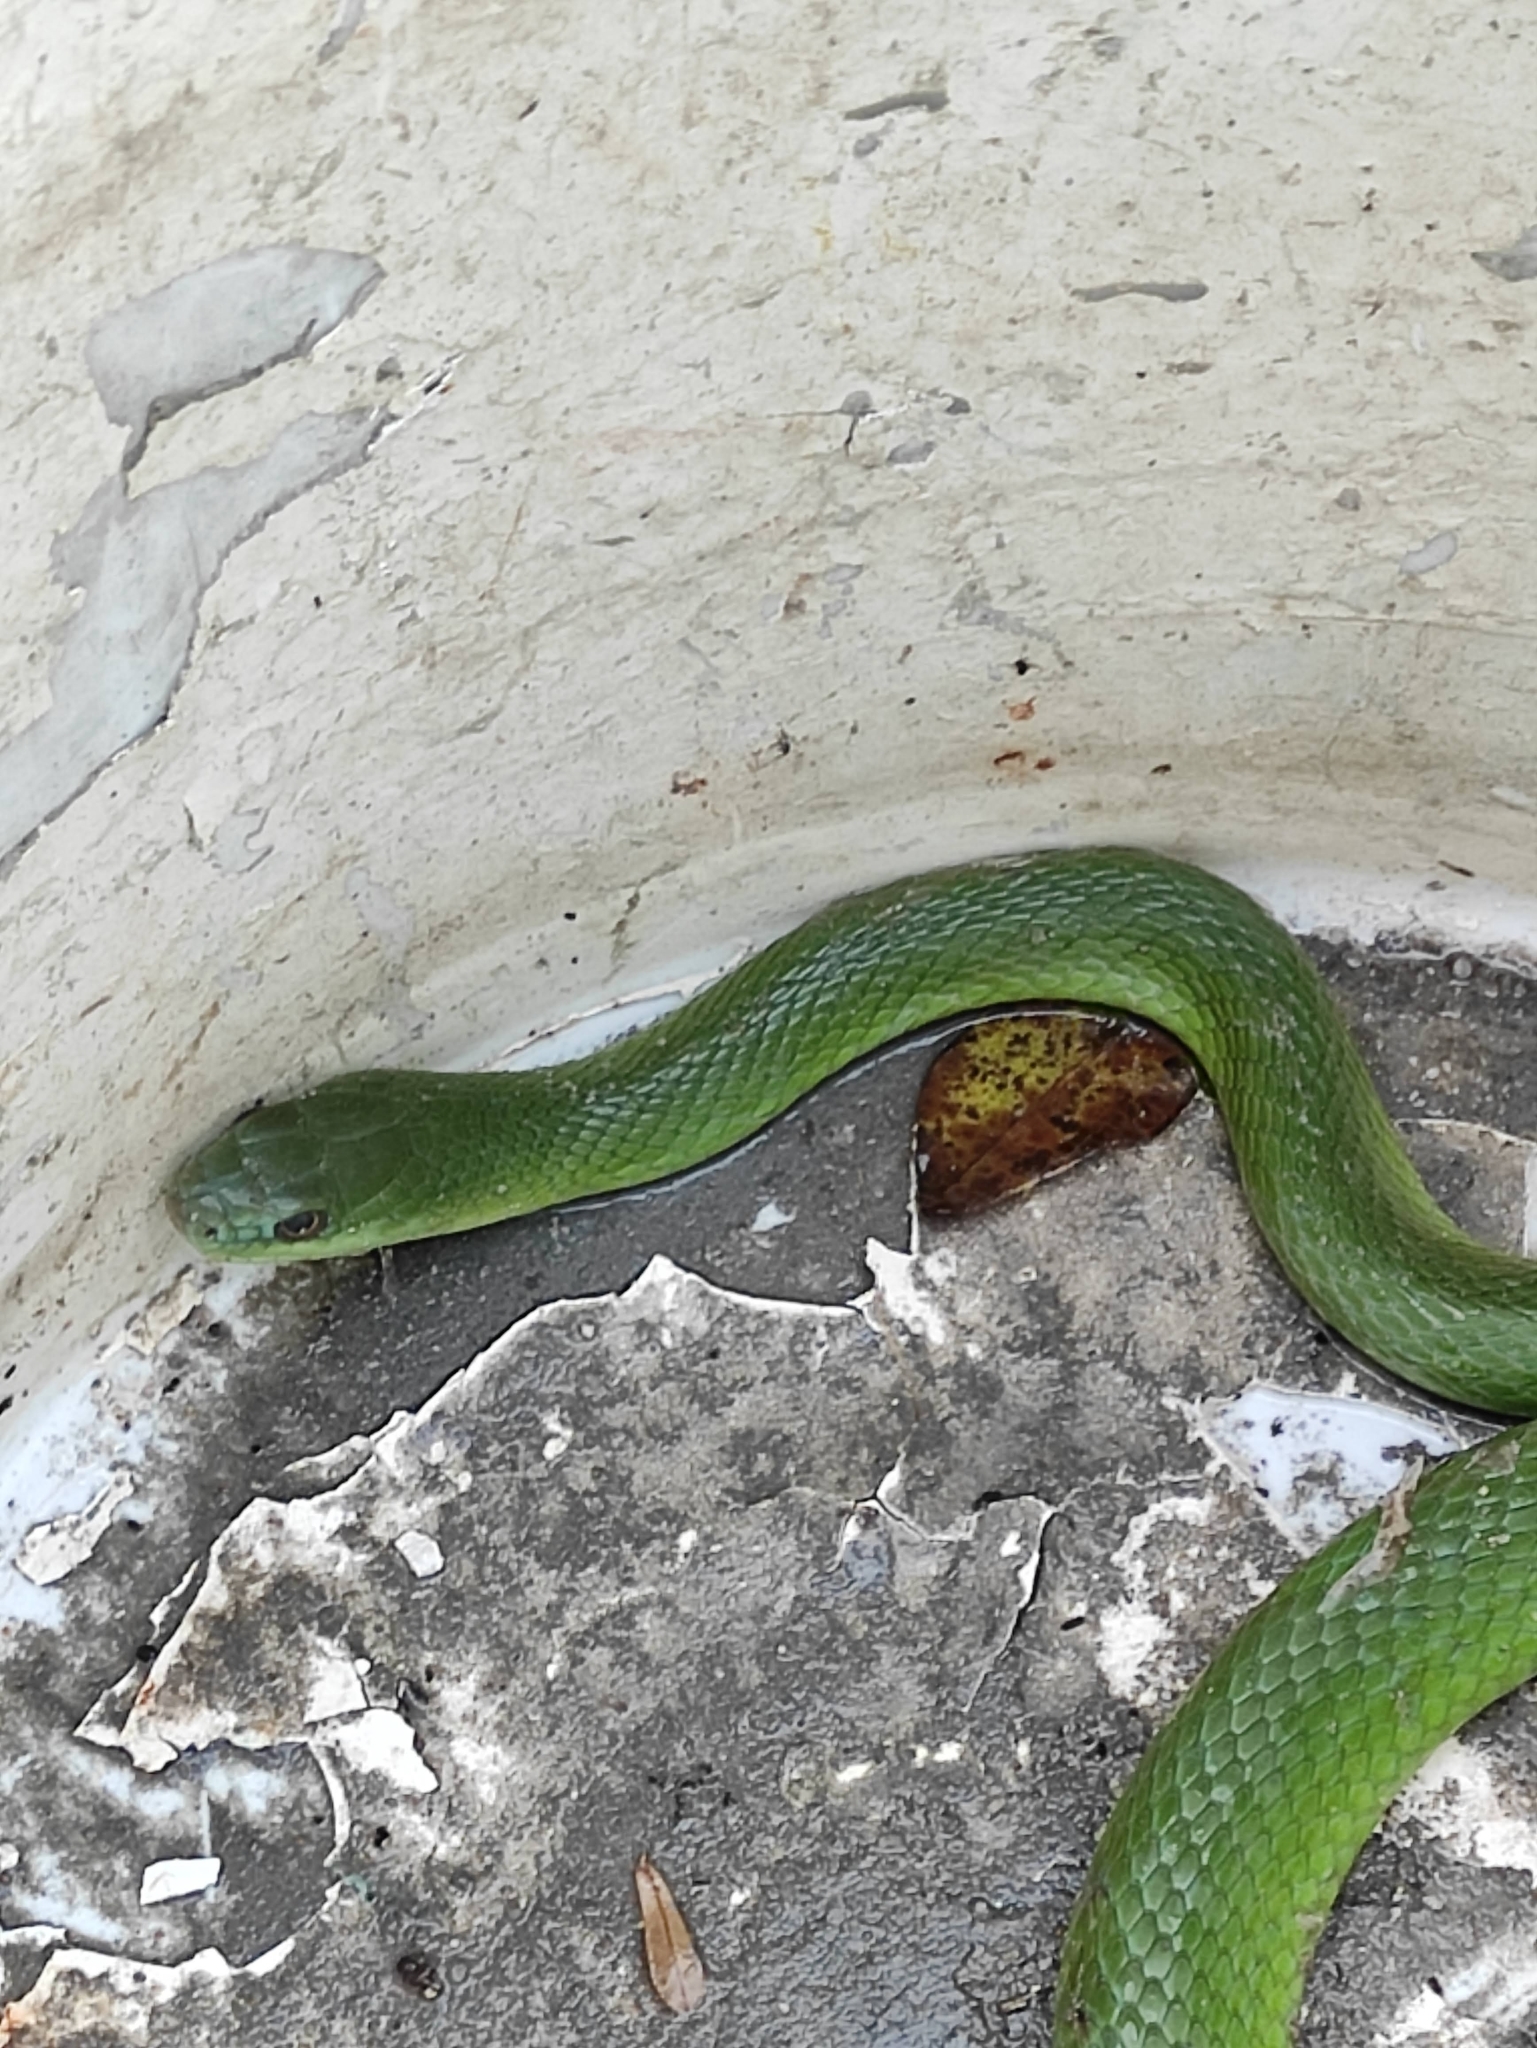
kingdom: Animalia
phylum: Chordata
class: Squamata
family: Colubridae
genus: Philodryas
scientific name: Philodryas olfersii
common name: Lichtenstein's green racer
